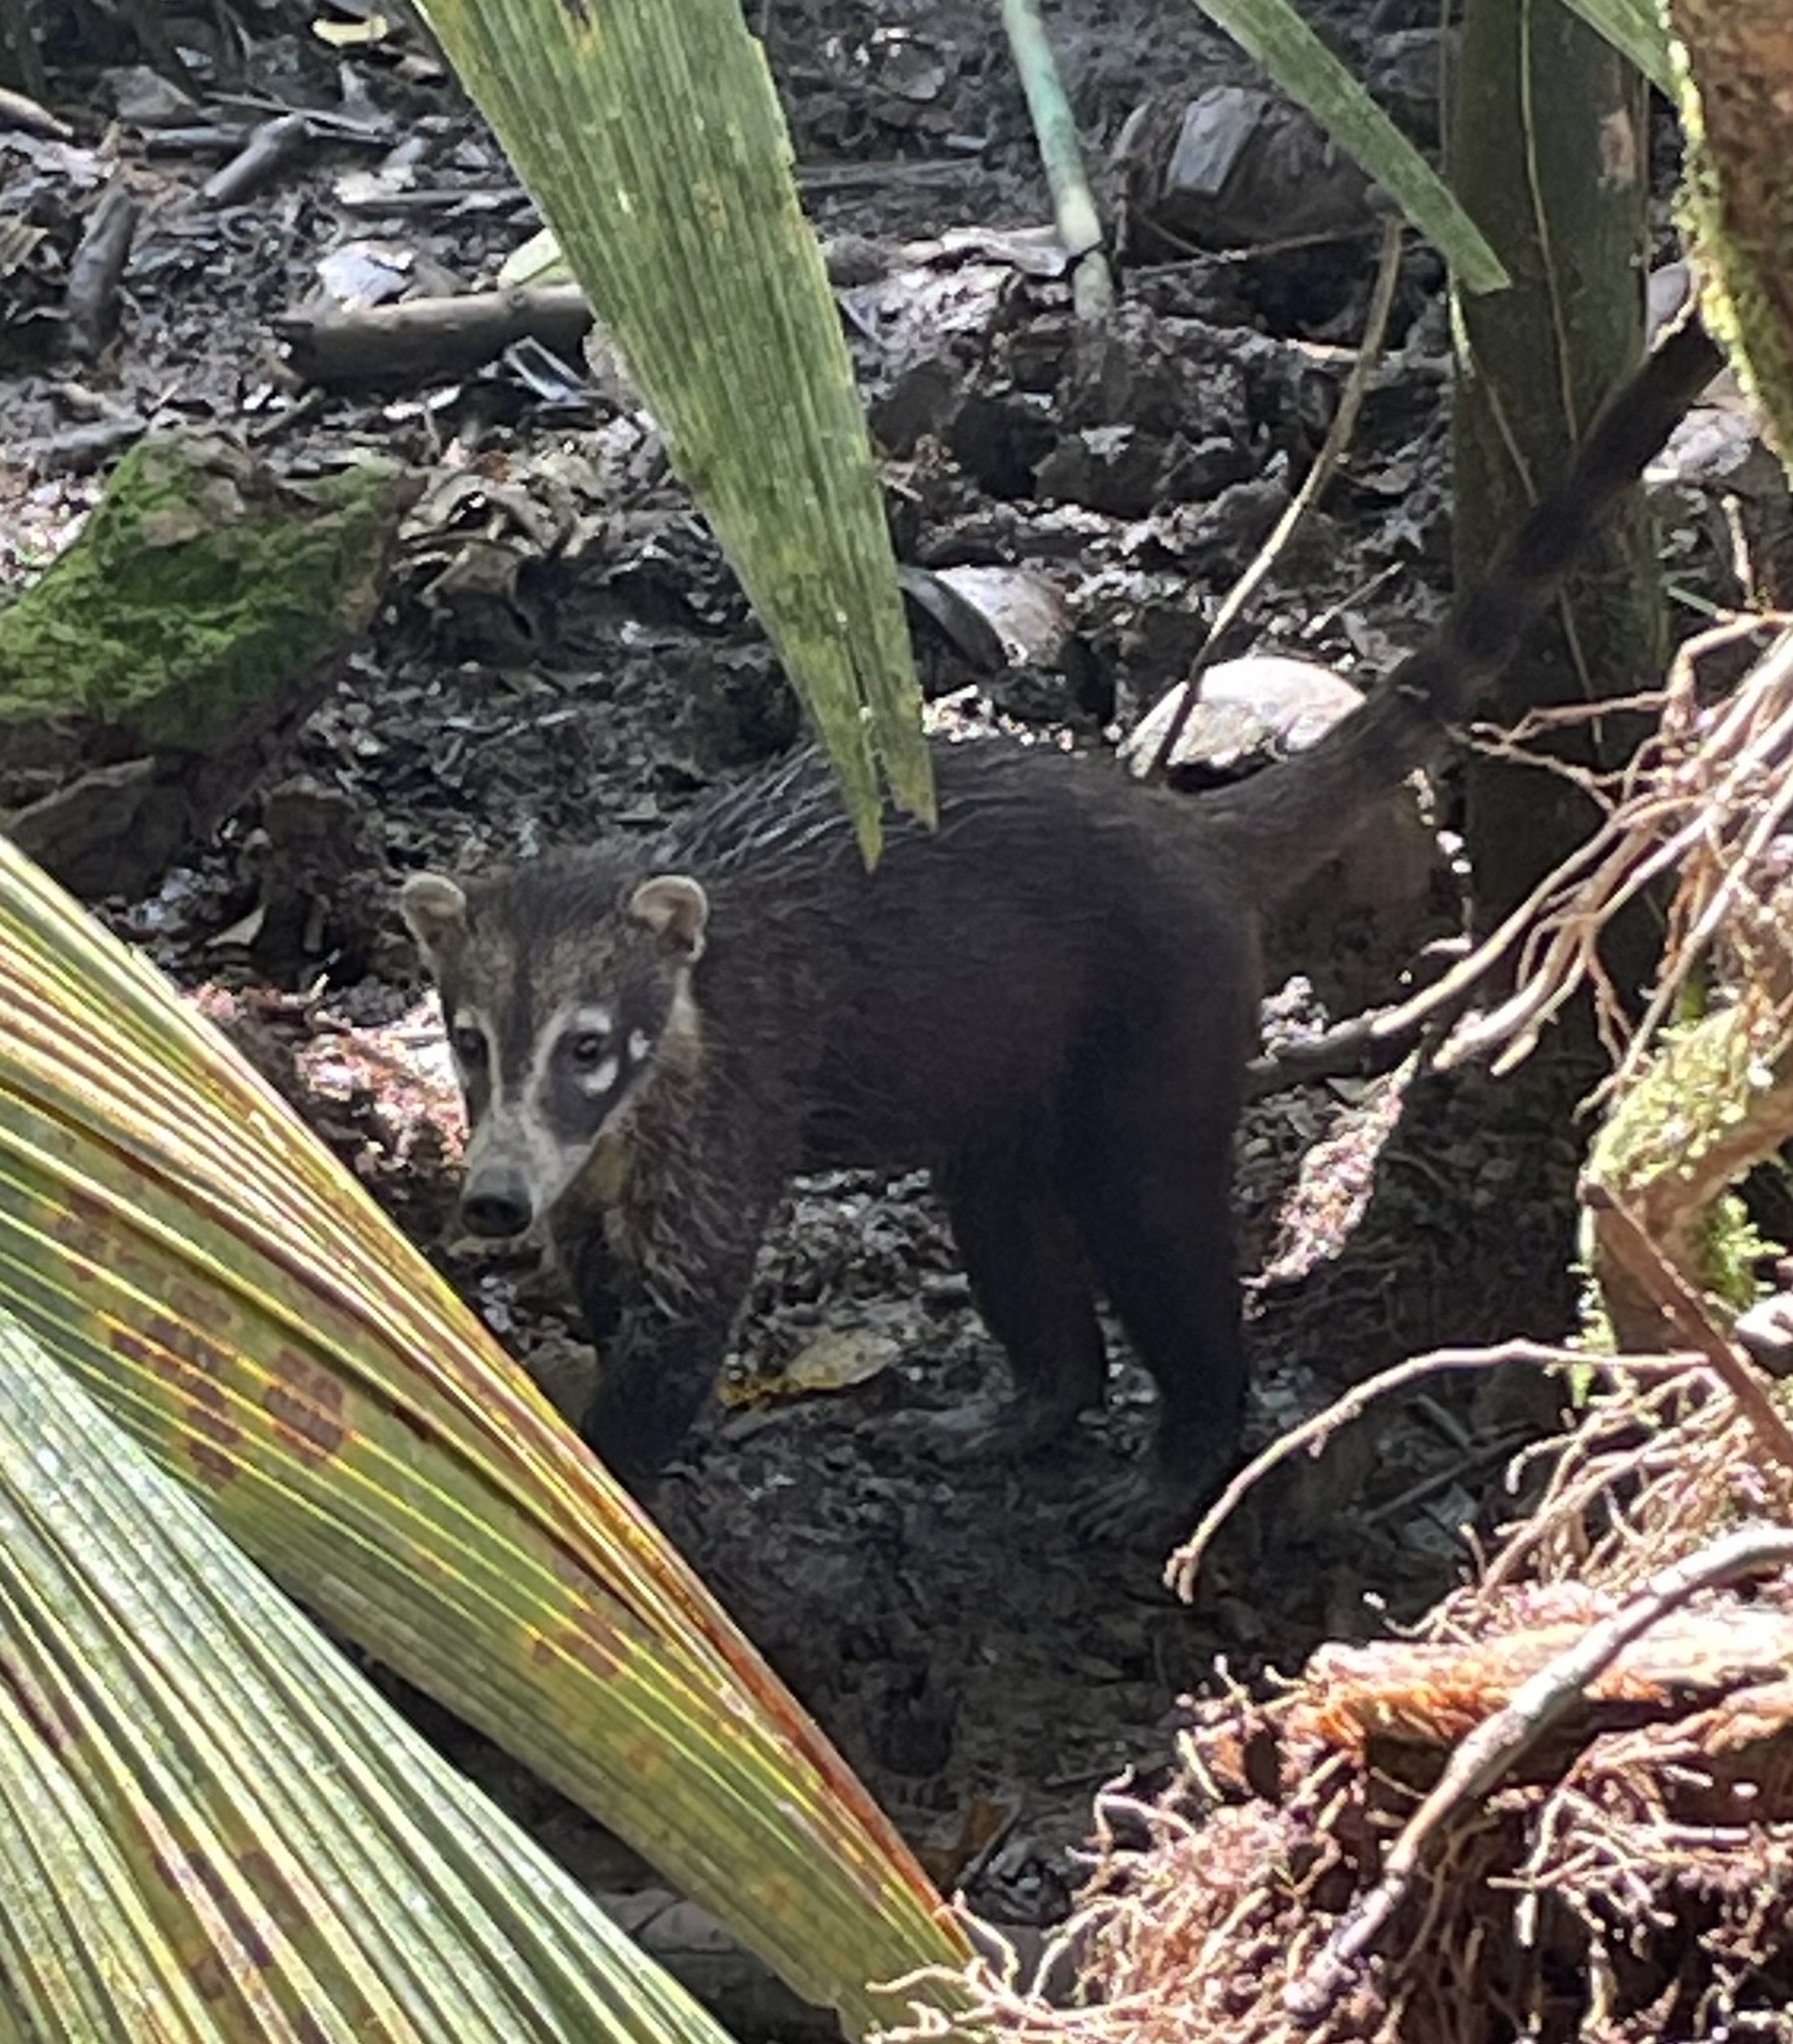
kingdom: Animalia
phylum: Chordata
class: Mammalia
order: Carnivora
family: Procyonidae
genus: Nasua
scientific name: Nasua narica
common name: White-nosed coati
